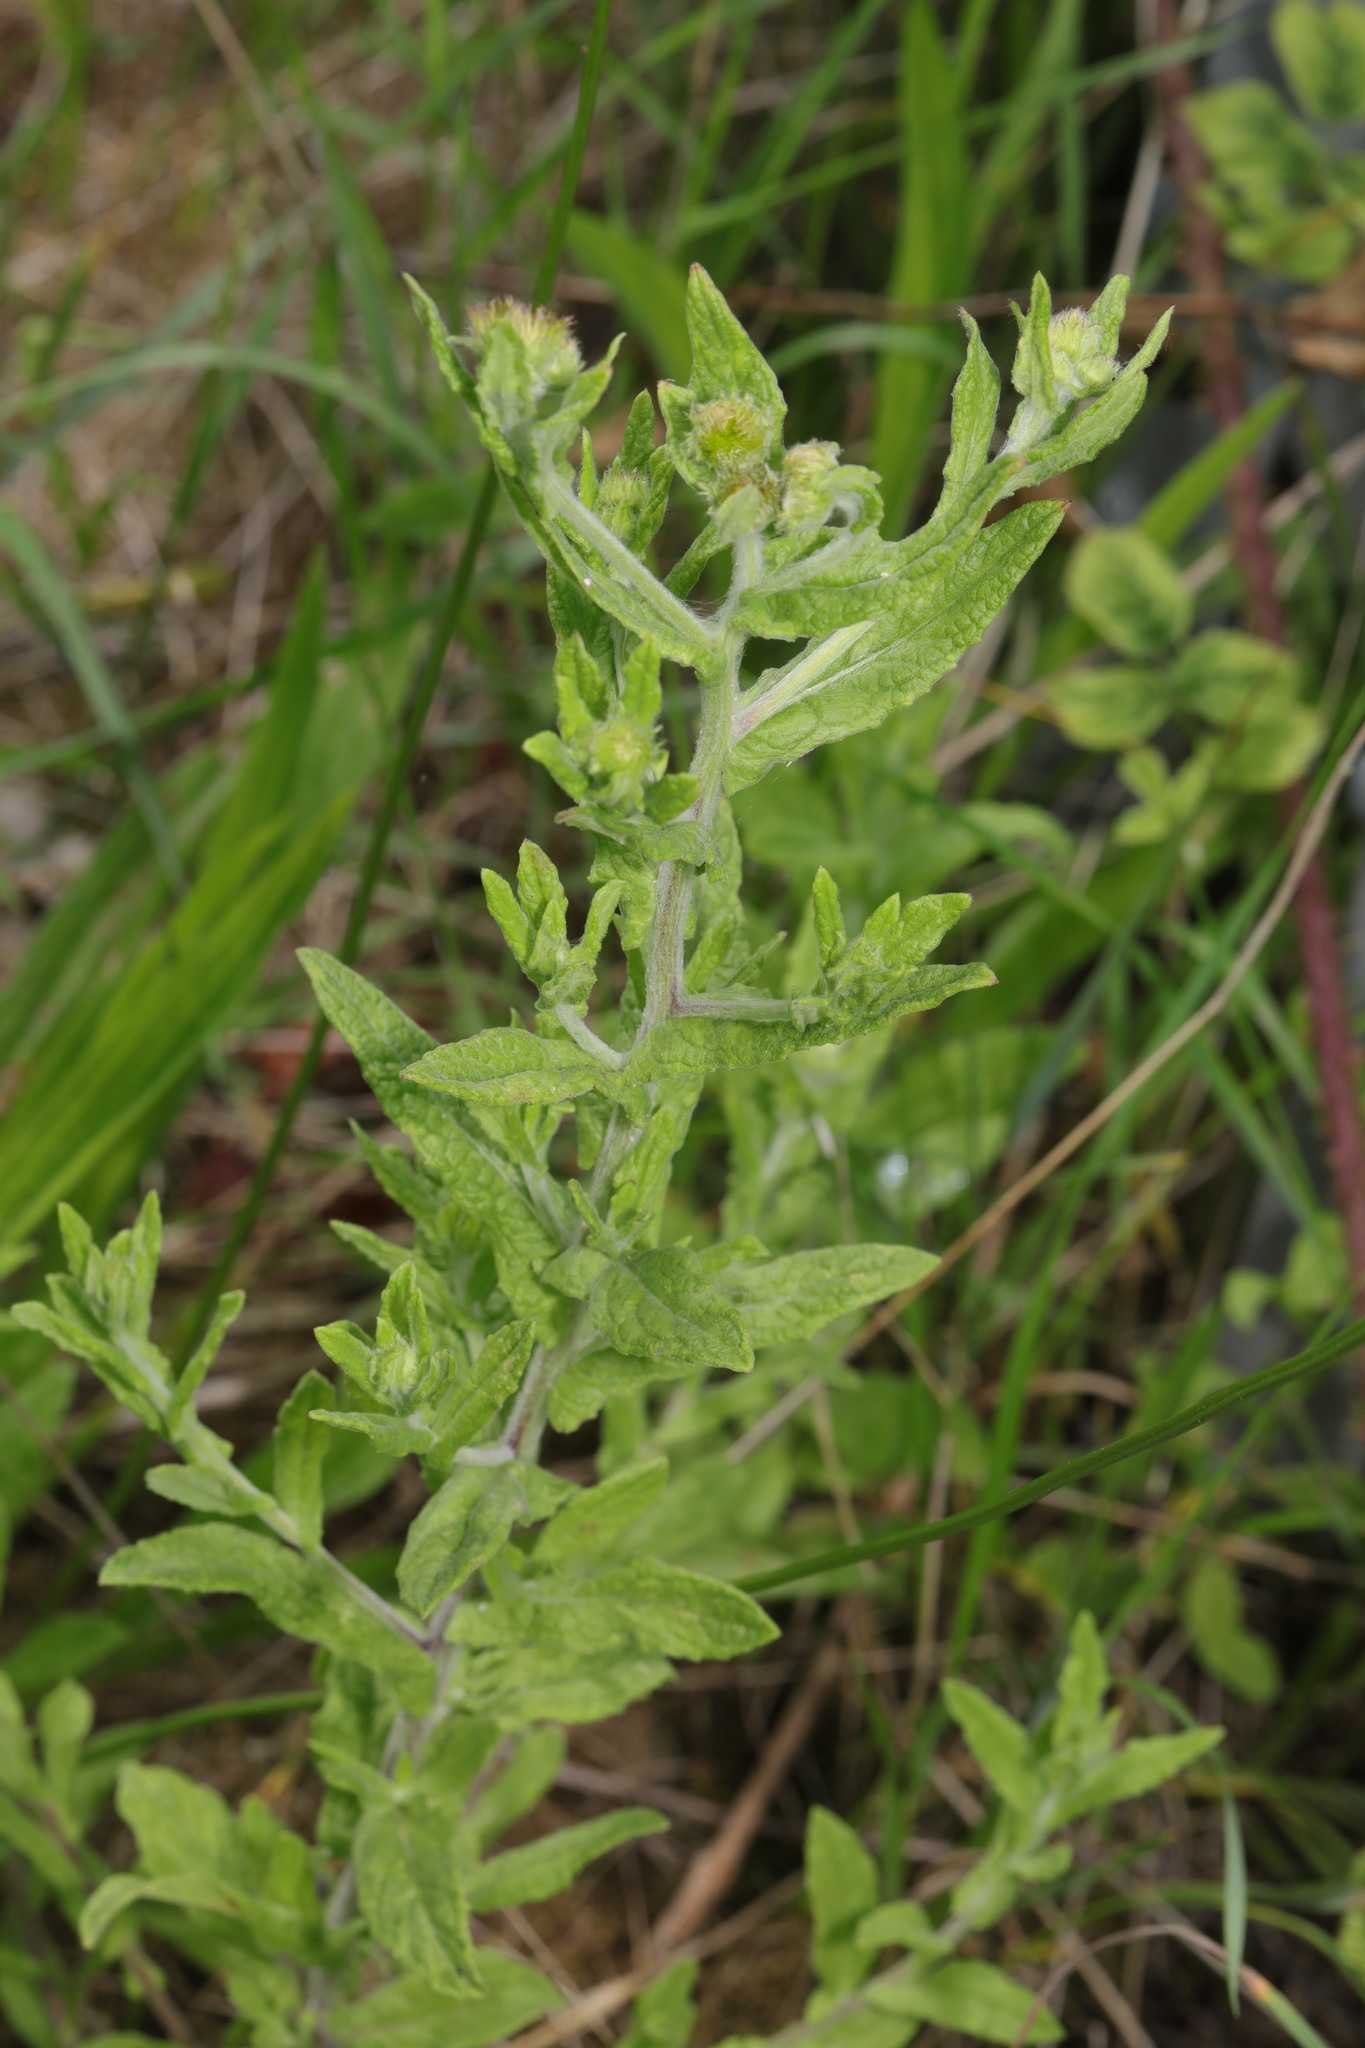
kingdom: Plantae
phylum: Tracheophyta
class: Magnoliopsida
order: Asterales
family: Asteraceae
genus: Pulicaria
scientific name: Pulicaria dysenterica
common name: Common fleabane
